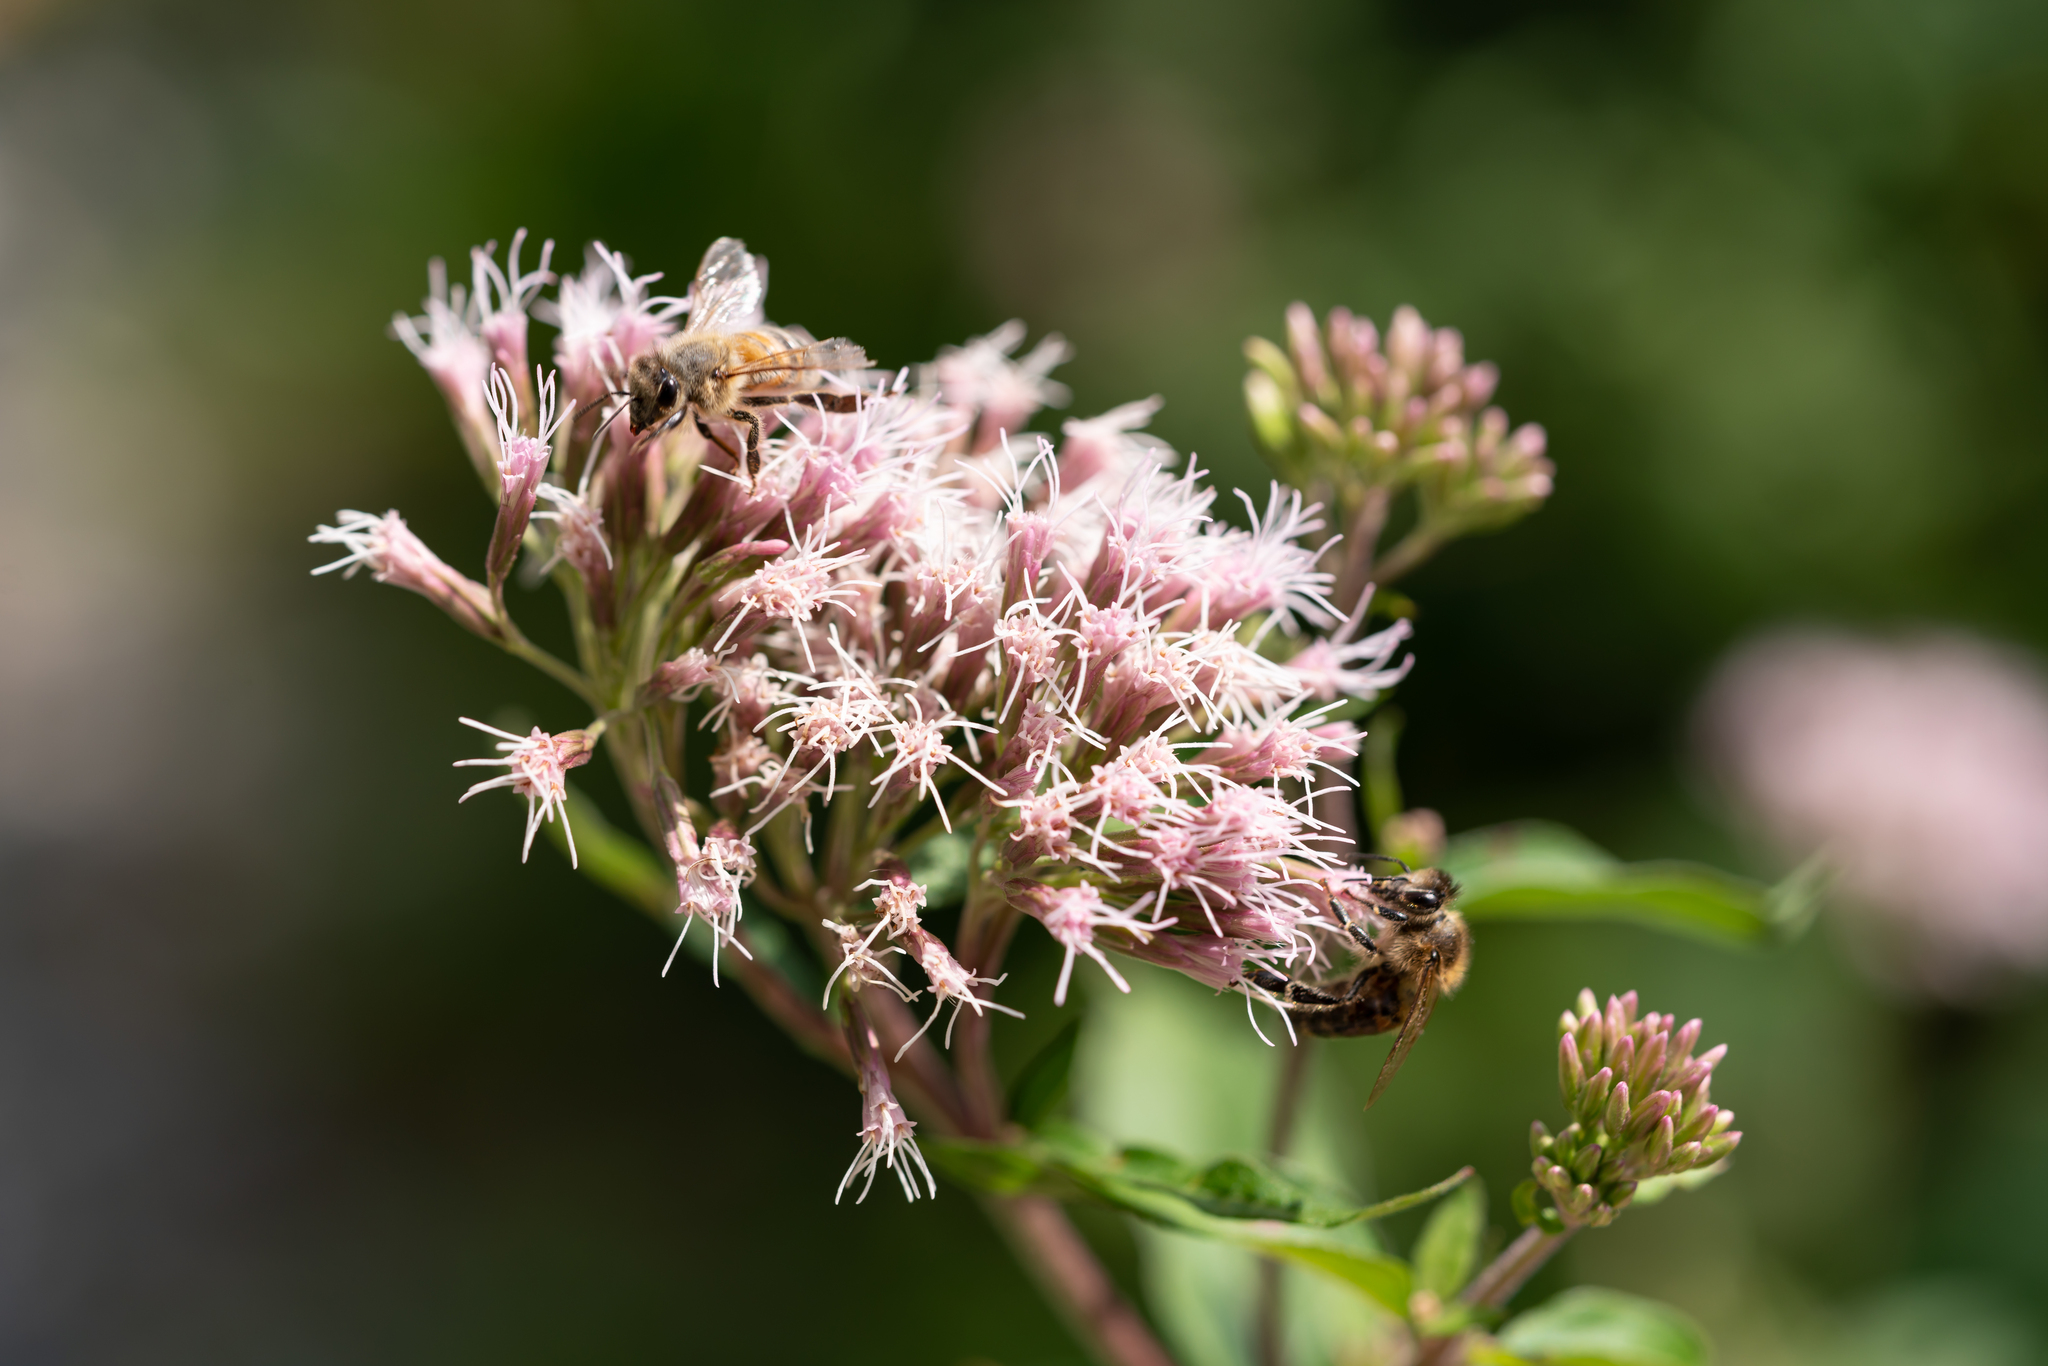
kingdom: Plantae
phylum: Tracheophyta
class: Magnoliopsida
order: Asterales
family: Asteraceae
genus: Eupatorium
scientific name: Eupatorium cannabinum
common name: Hemp-agrimony
